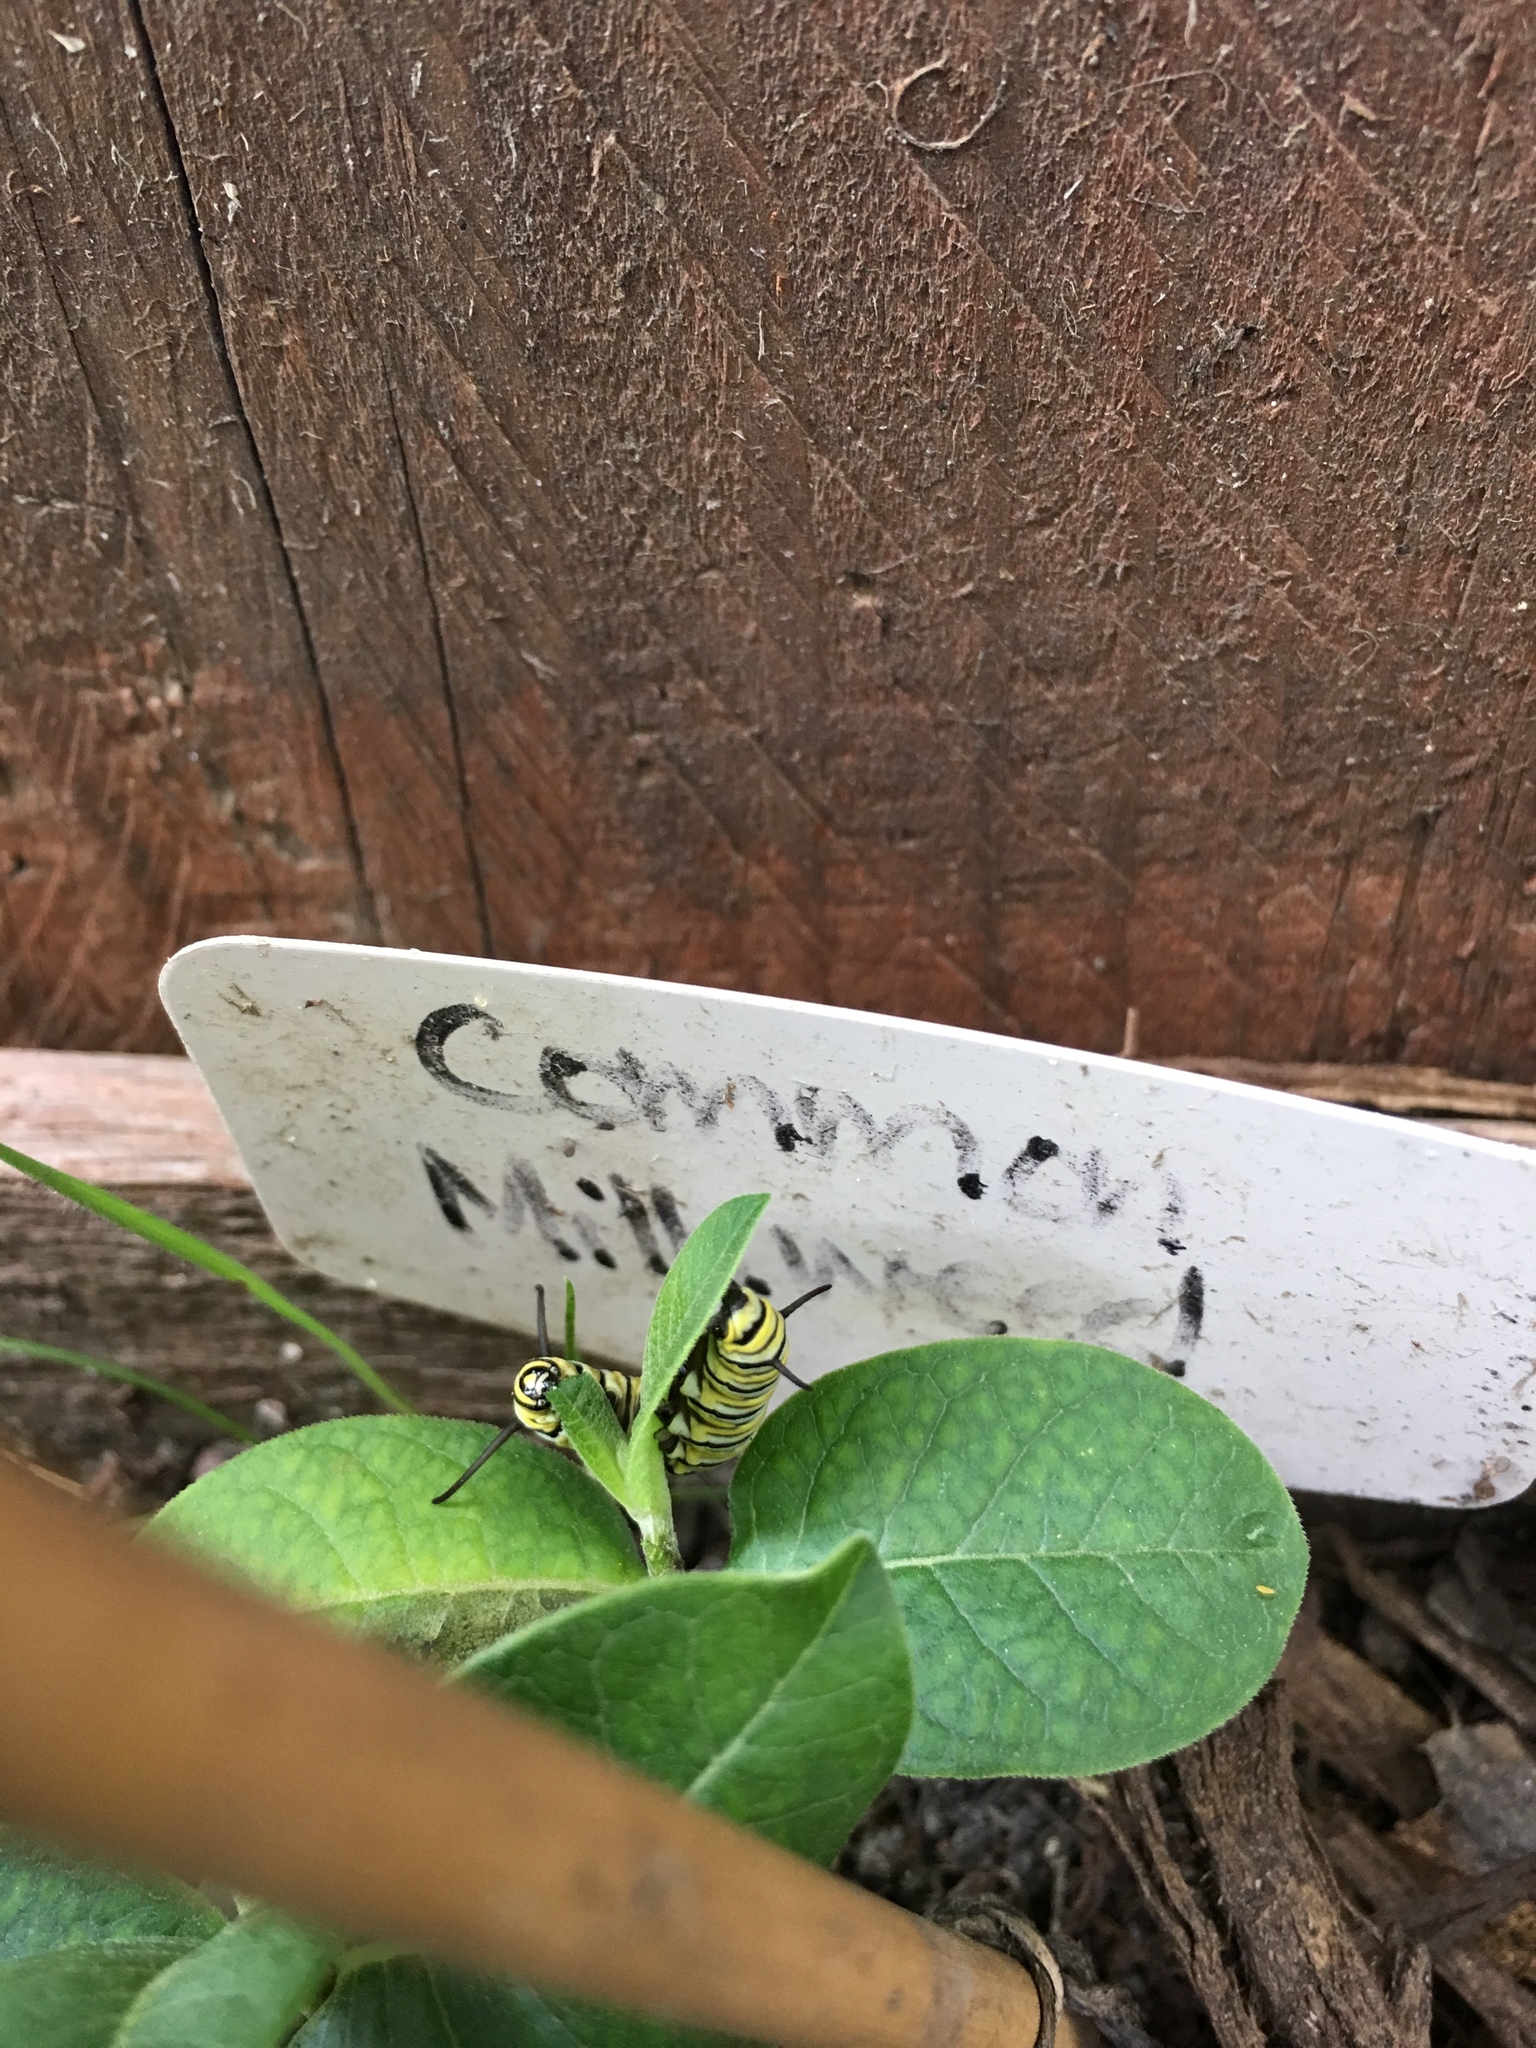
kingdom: Animalia
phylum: Arthropoda
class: Insecta
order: Lepidoptera
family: Nymphalidae
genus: Danaus
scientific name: Danaus plexippus
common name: Monarch
